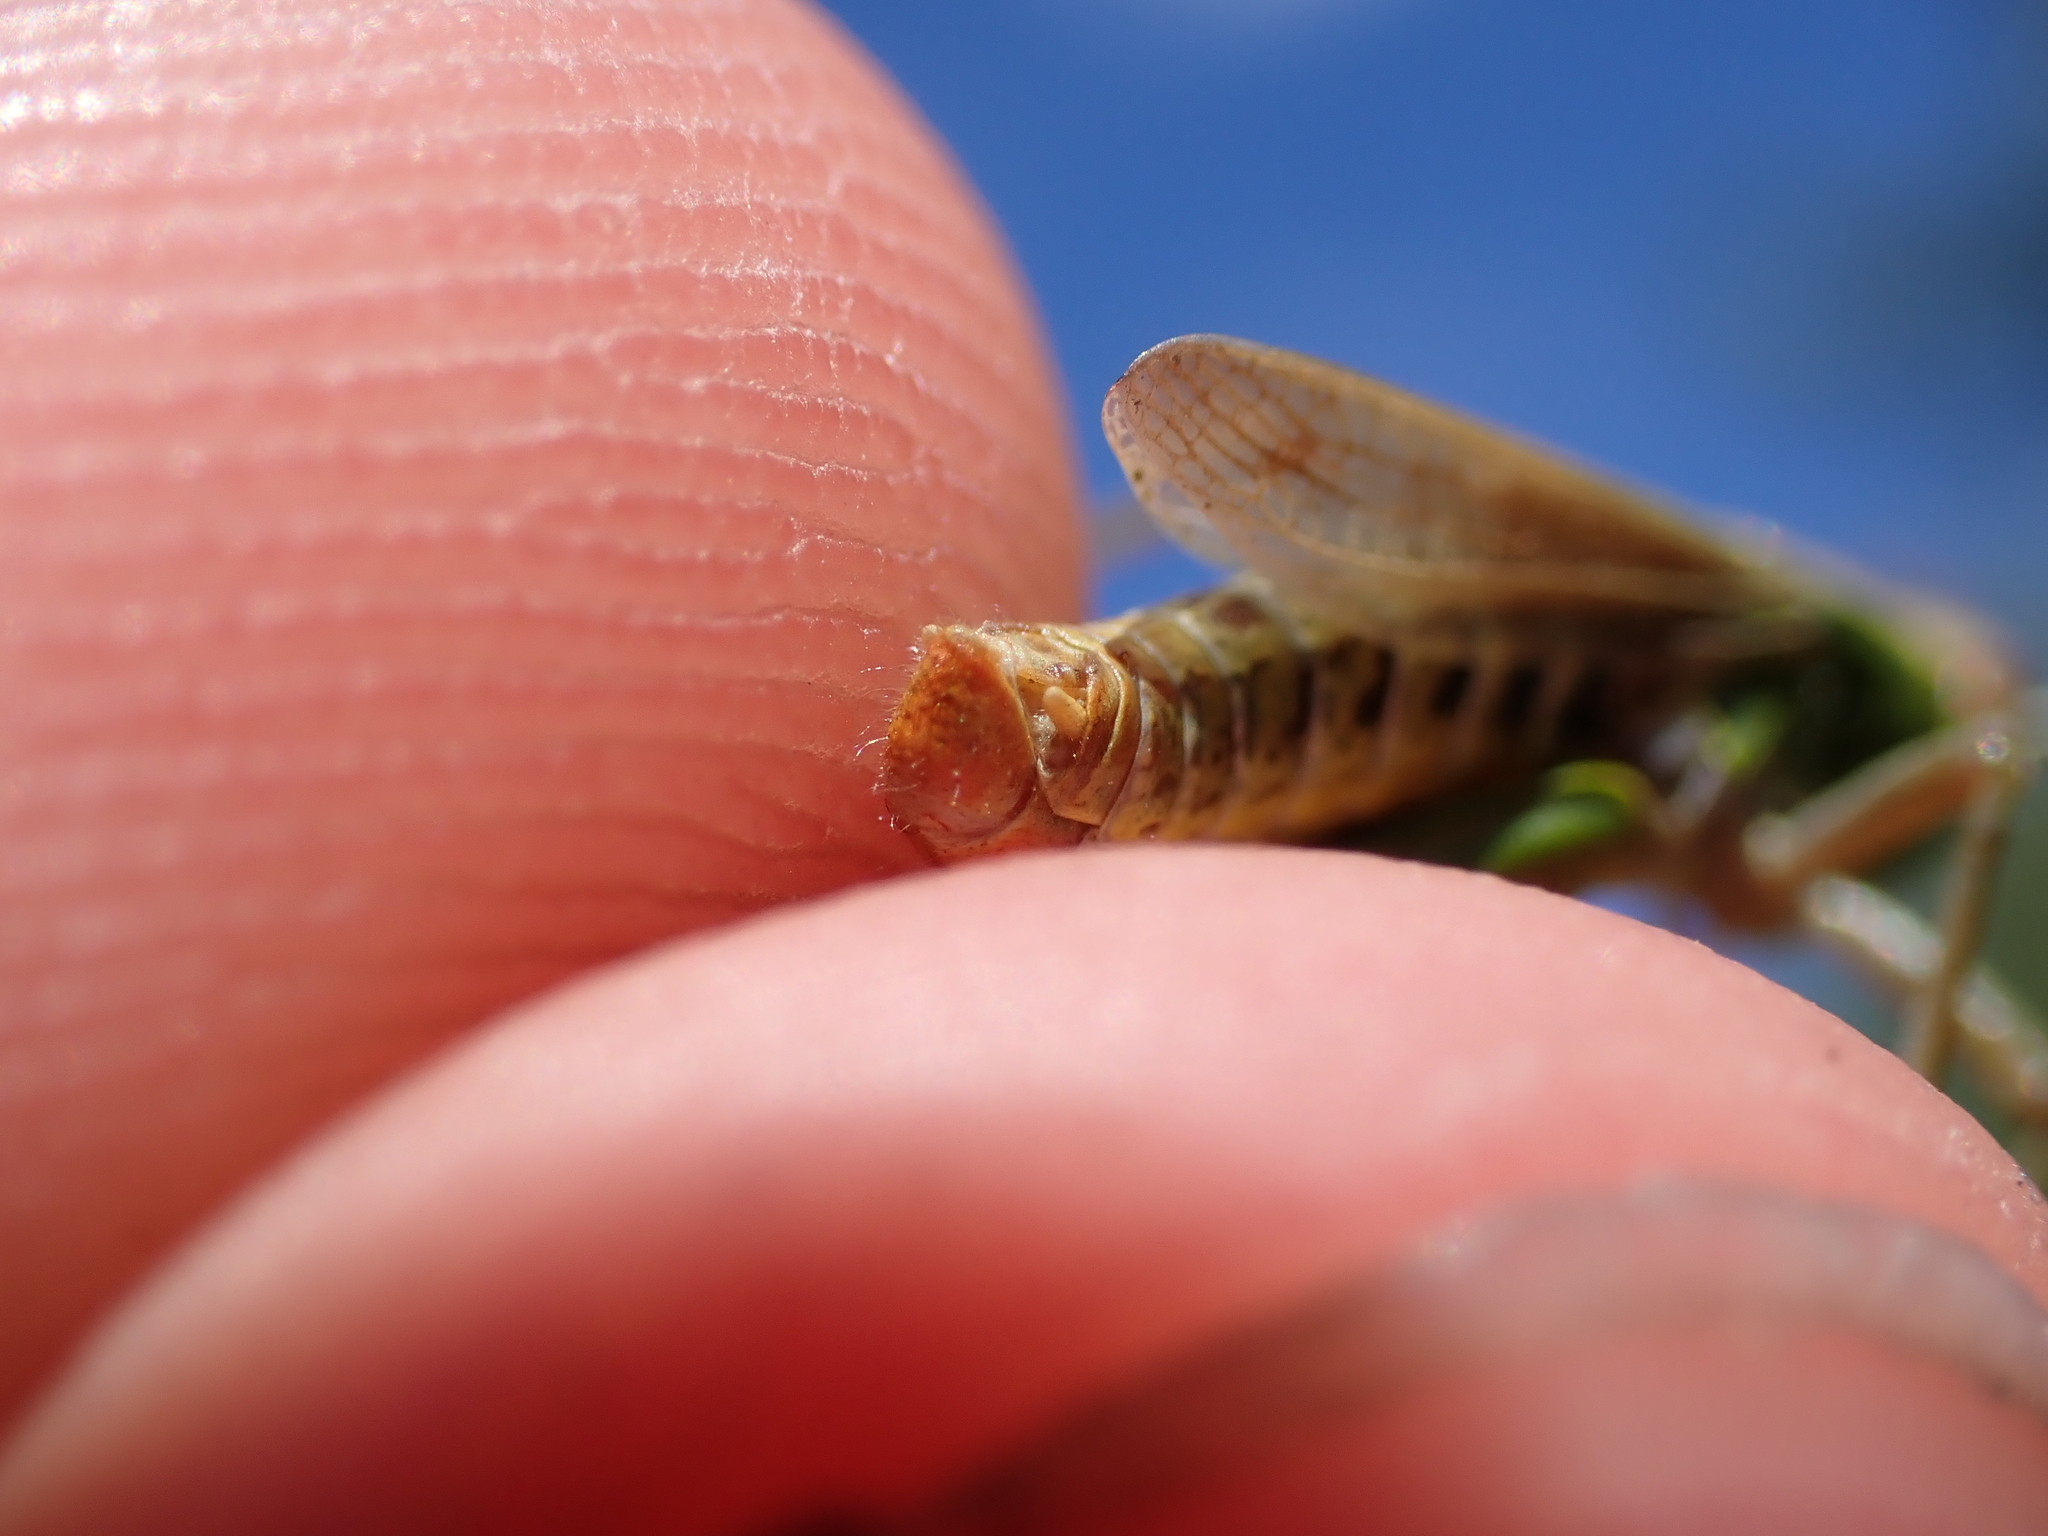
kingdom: Animalia
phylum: Arthropoda
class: Insecta
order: Orthoptera
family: Acrididae
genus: Pseudochorthippus
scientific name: Pseudochorthippus parallelus
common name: Meadow grasshopper
